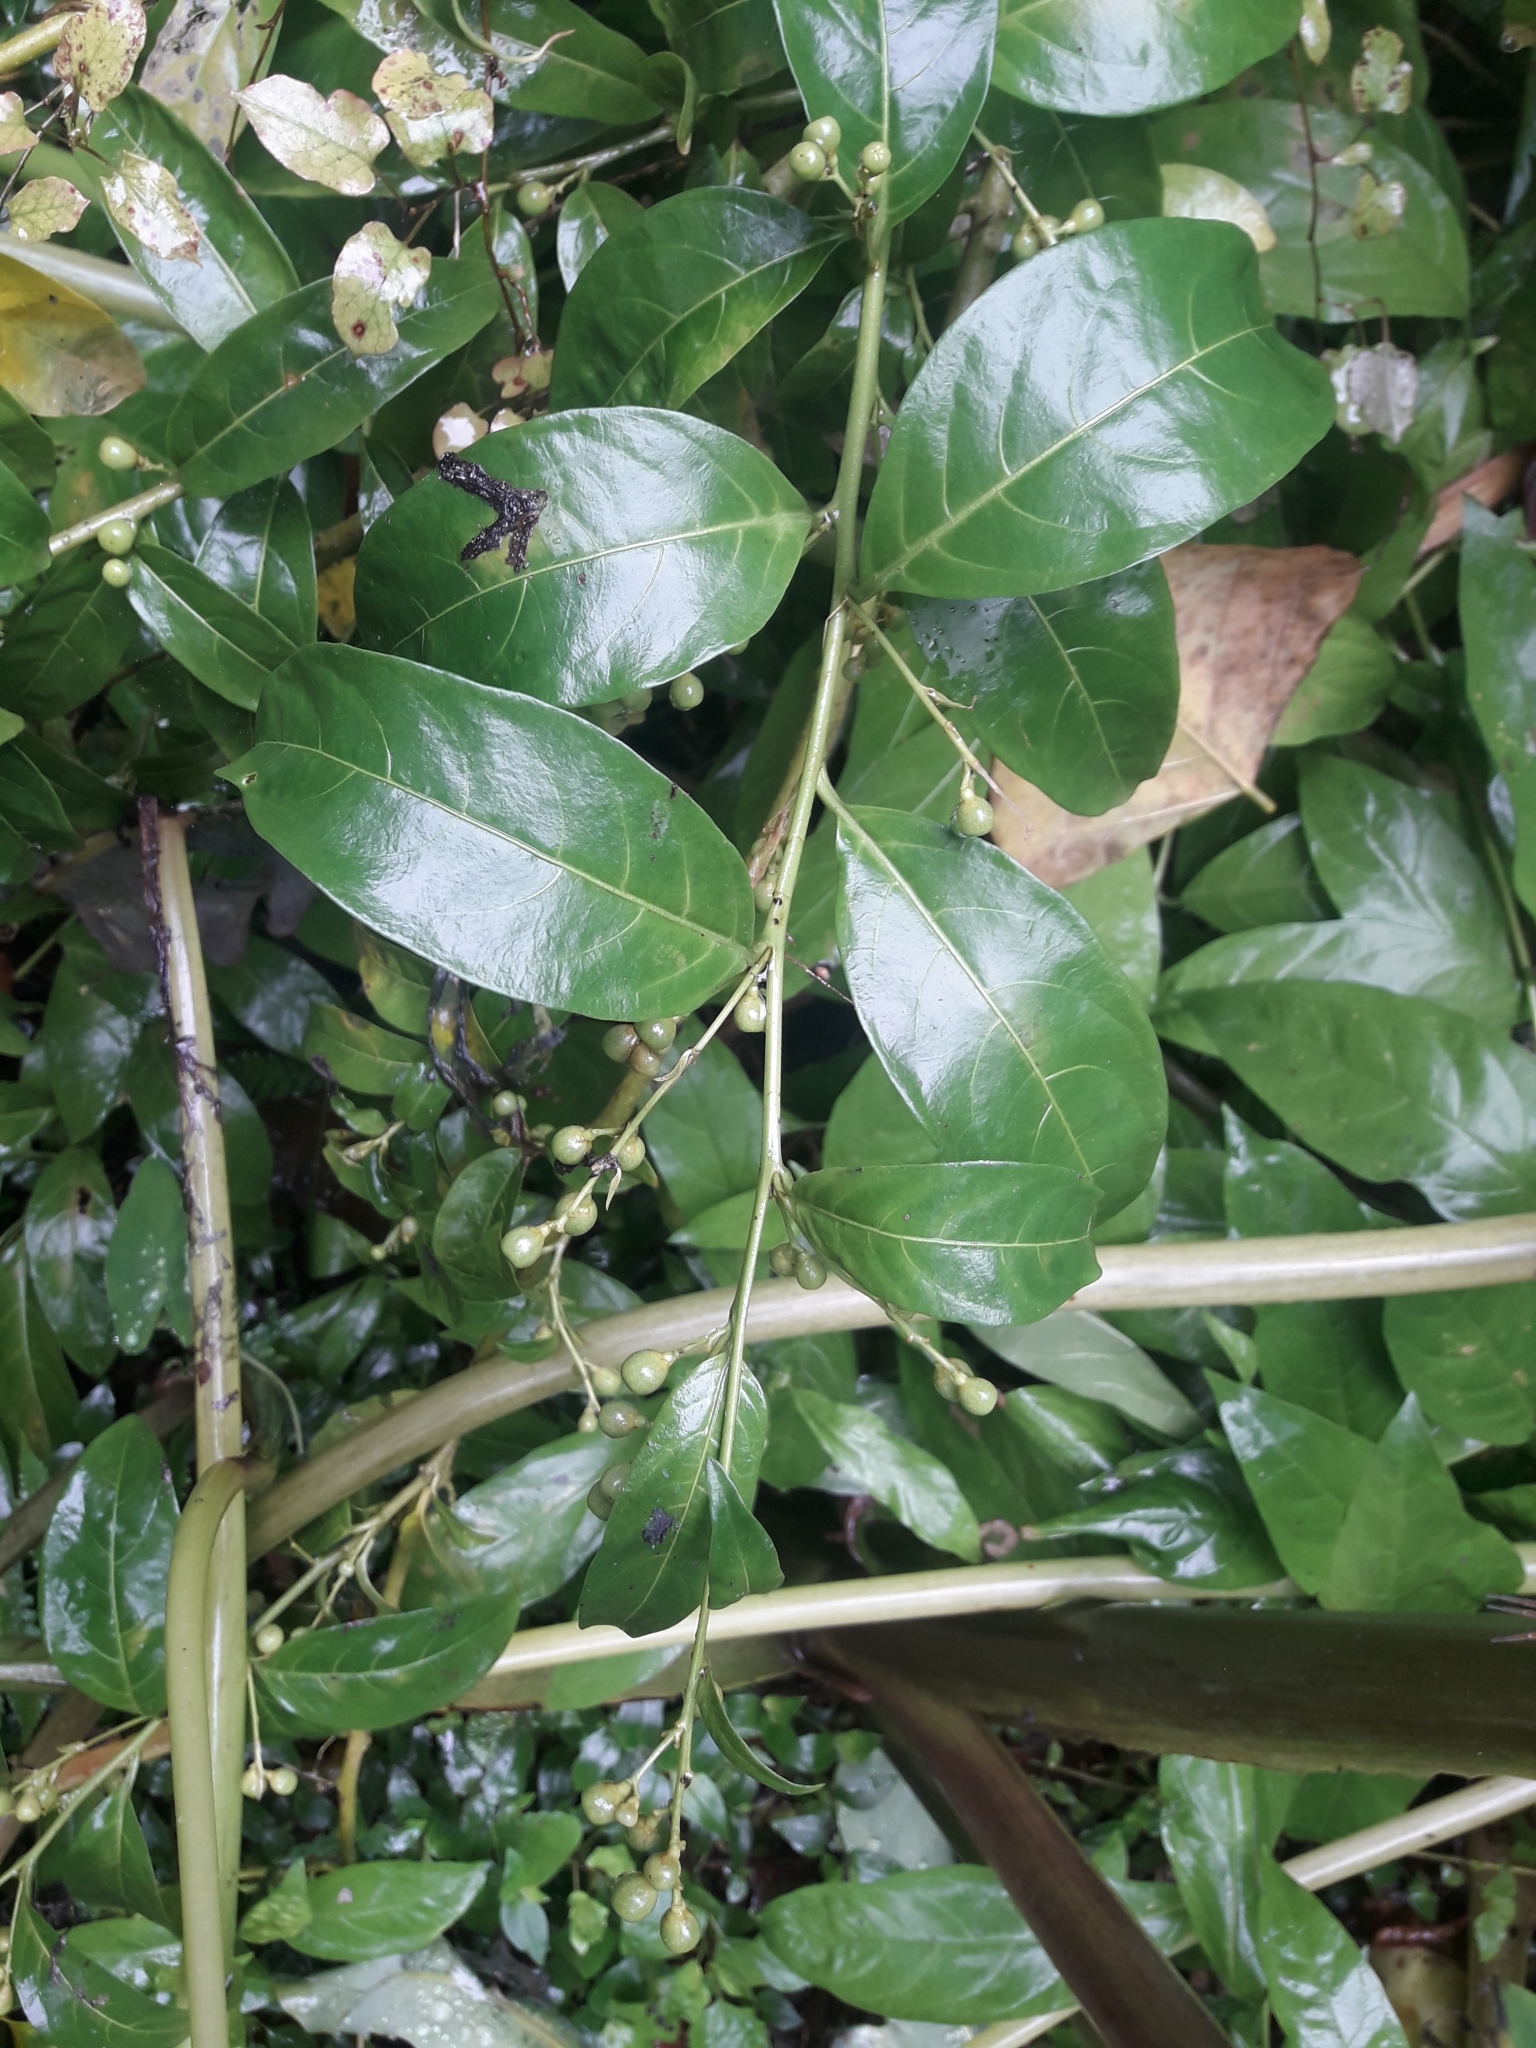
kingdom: Plantae
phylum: Tracheophyta
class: Magnoliopsida
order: Solanales
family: Solanaceae
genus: Cestrum
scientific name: Cestrum nocturnum
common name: Night jessamine
